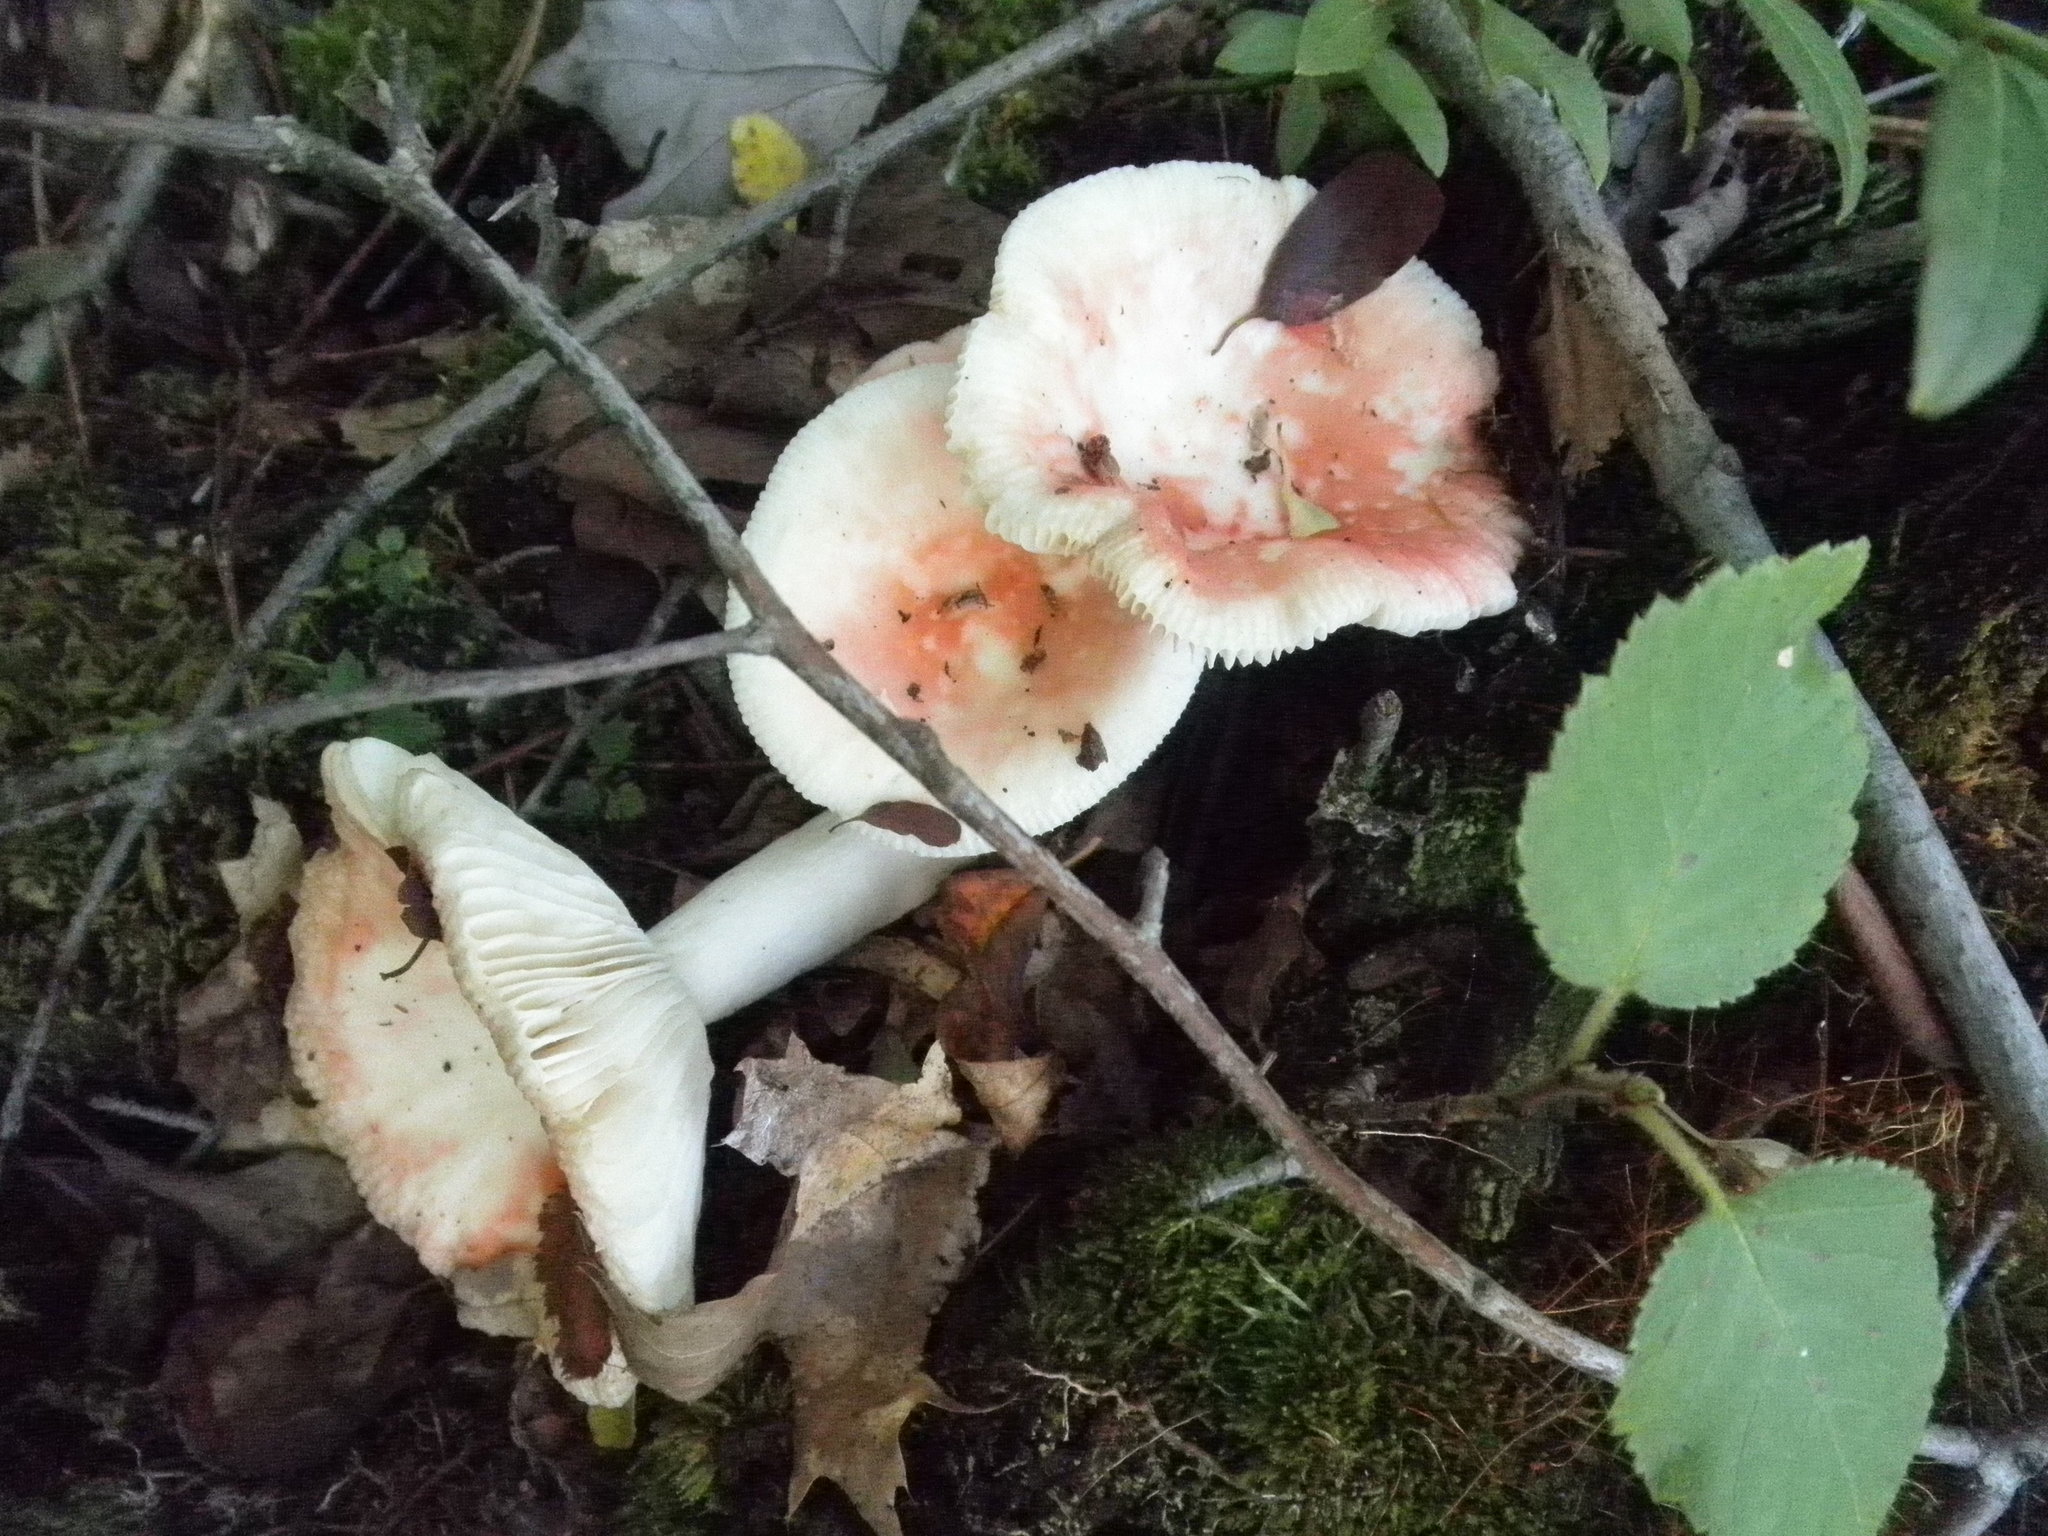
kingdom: Fungi
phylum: Basidiomycota
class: Agaricomycetes
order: Russulales
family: Russulaceae
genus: Russula
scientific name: Russula fragilis
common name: Fragile brittlegill
